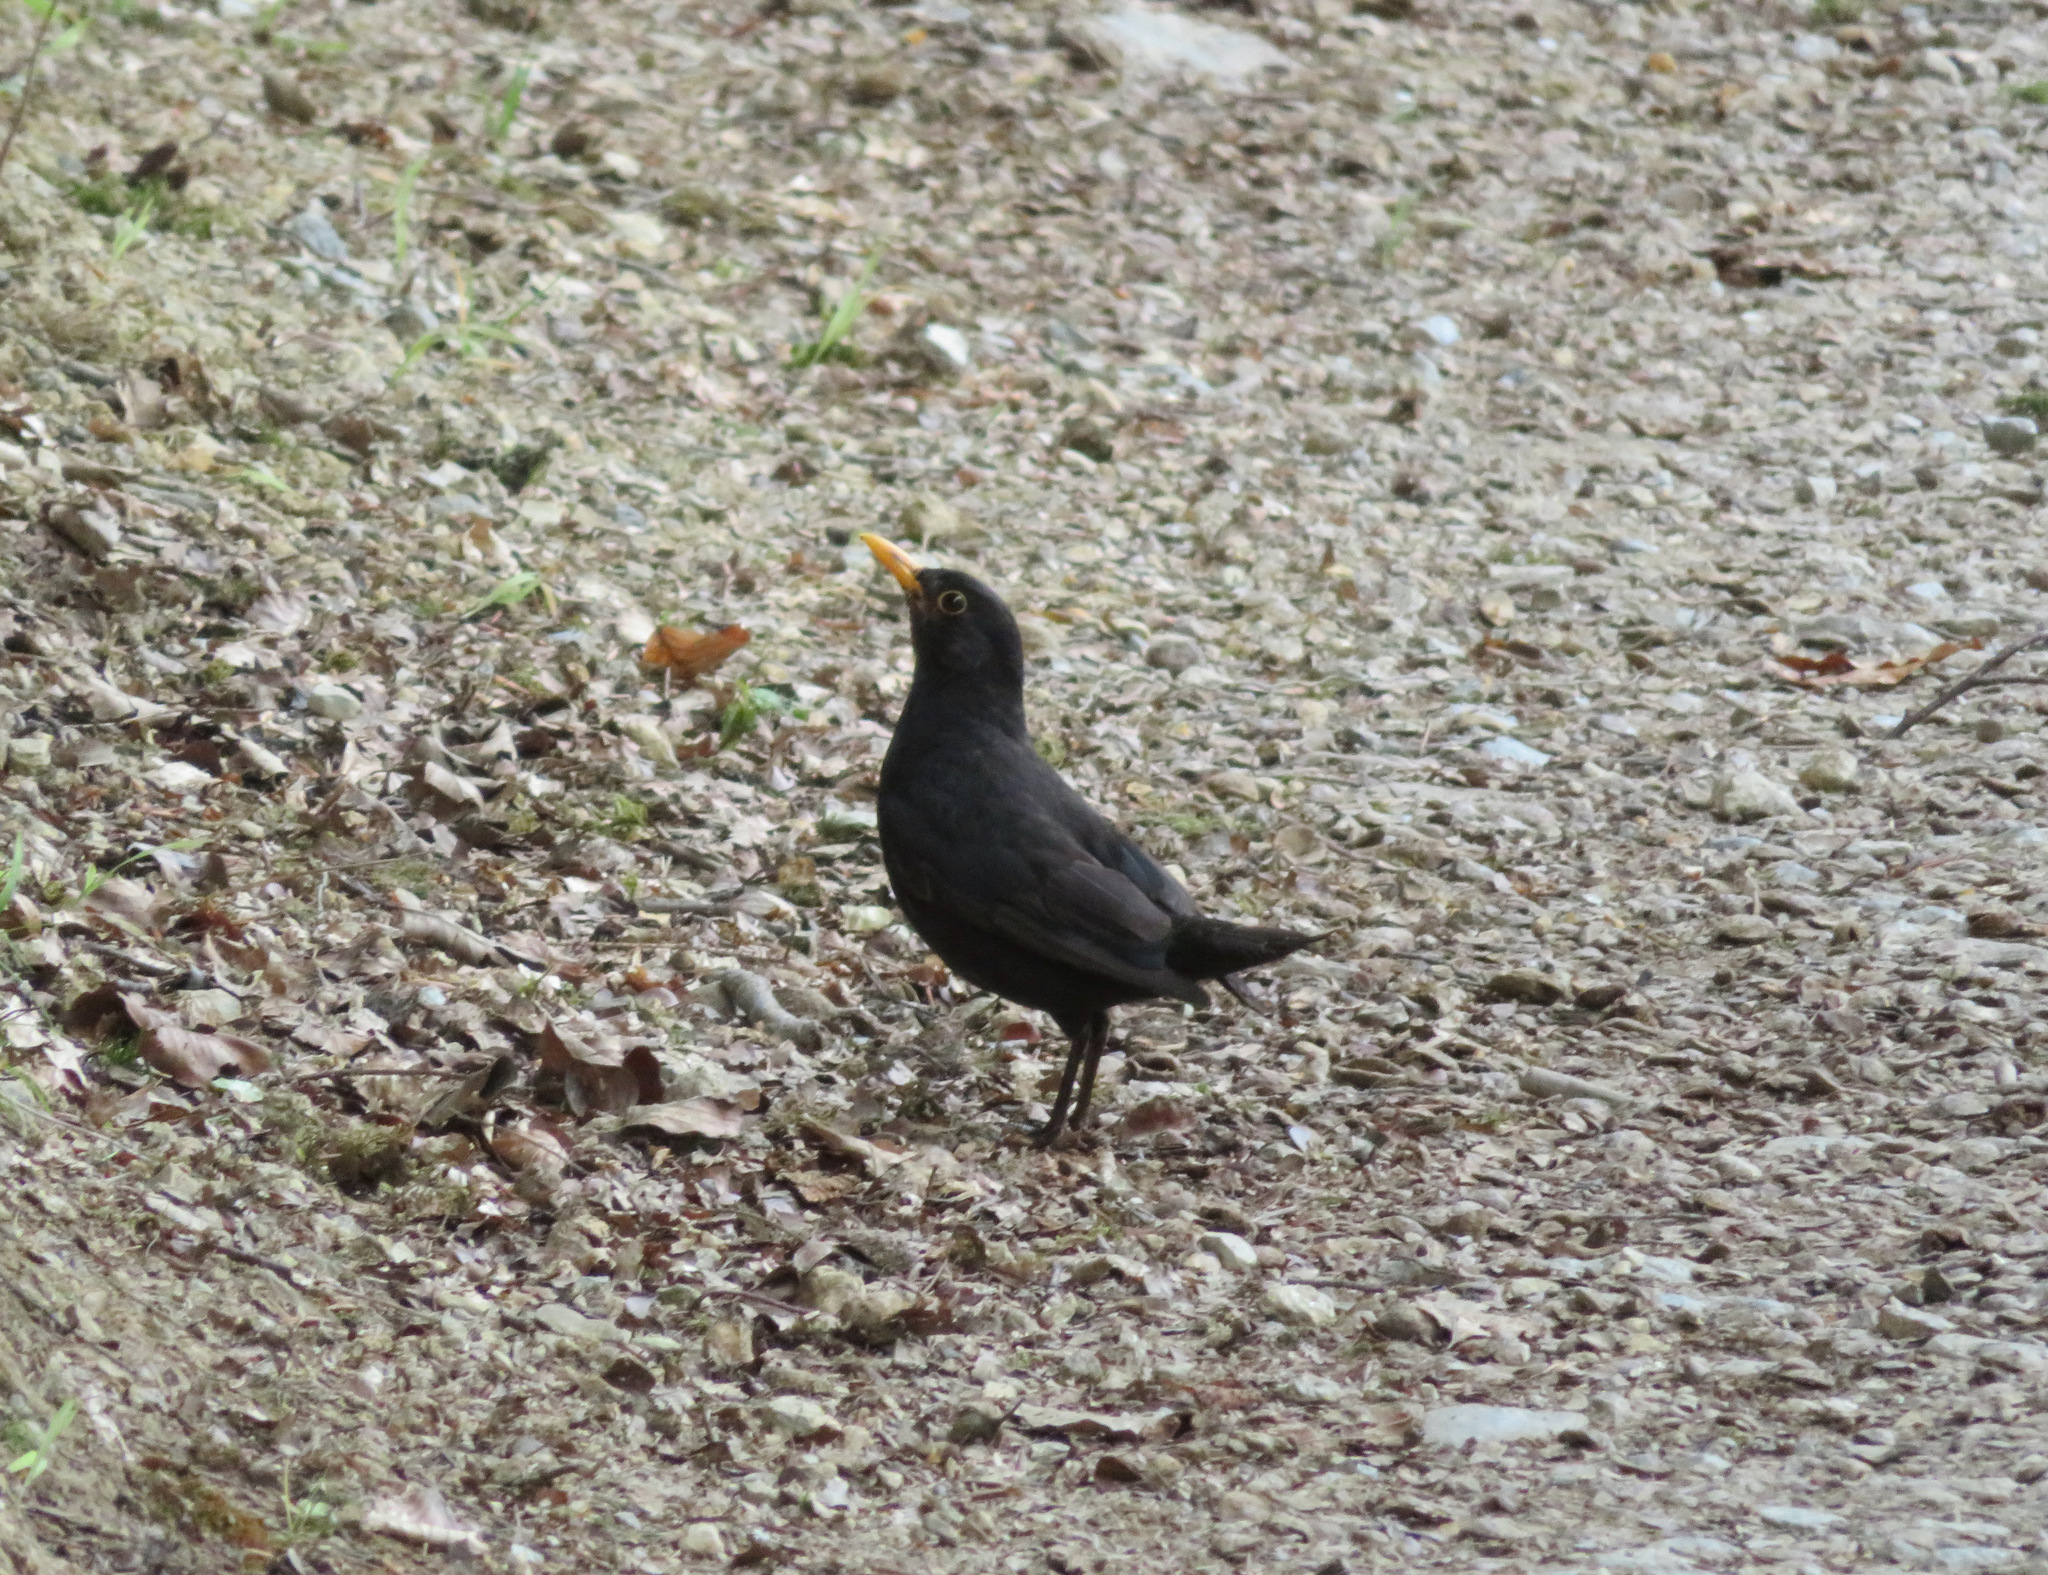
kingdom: Animalia
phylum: Chordata
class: Aves
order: Passeriformes
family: Turdidae
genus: Turdus
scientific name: Turdus merula
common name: Common blackbird
